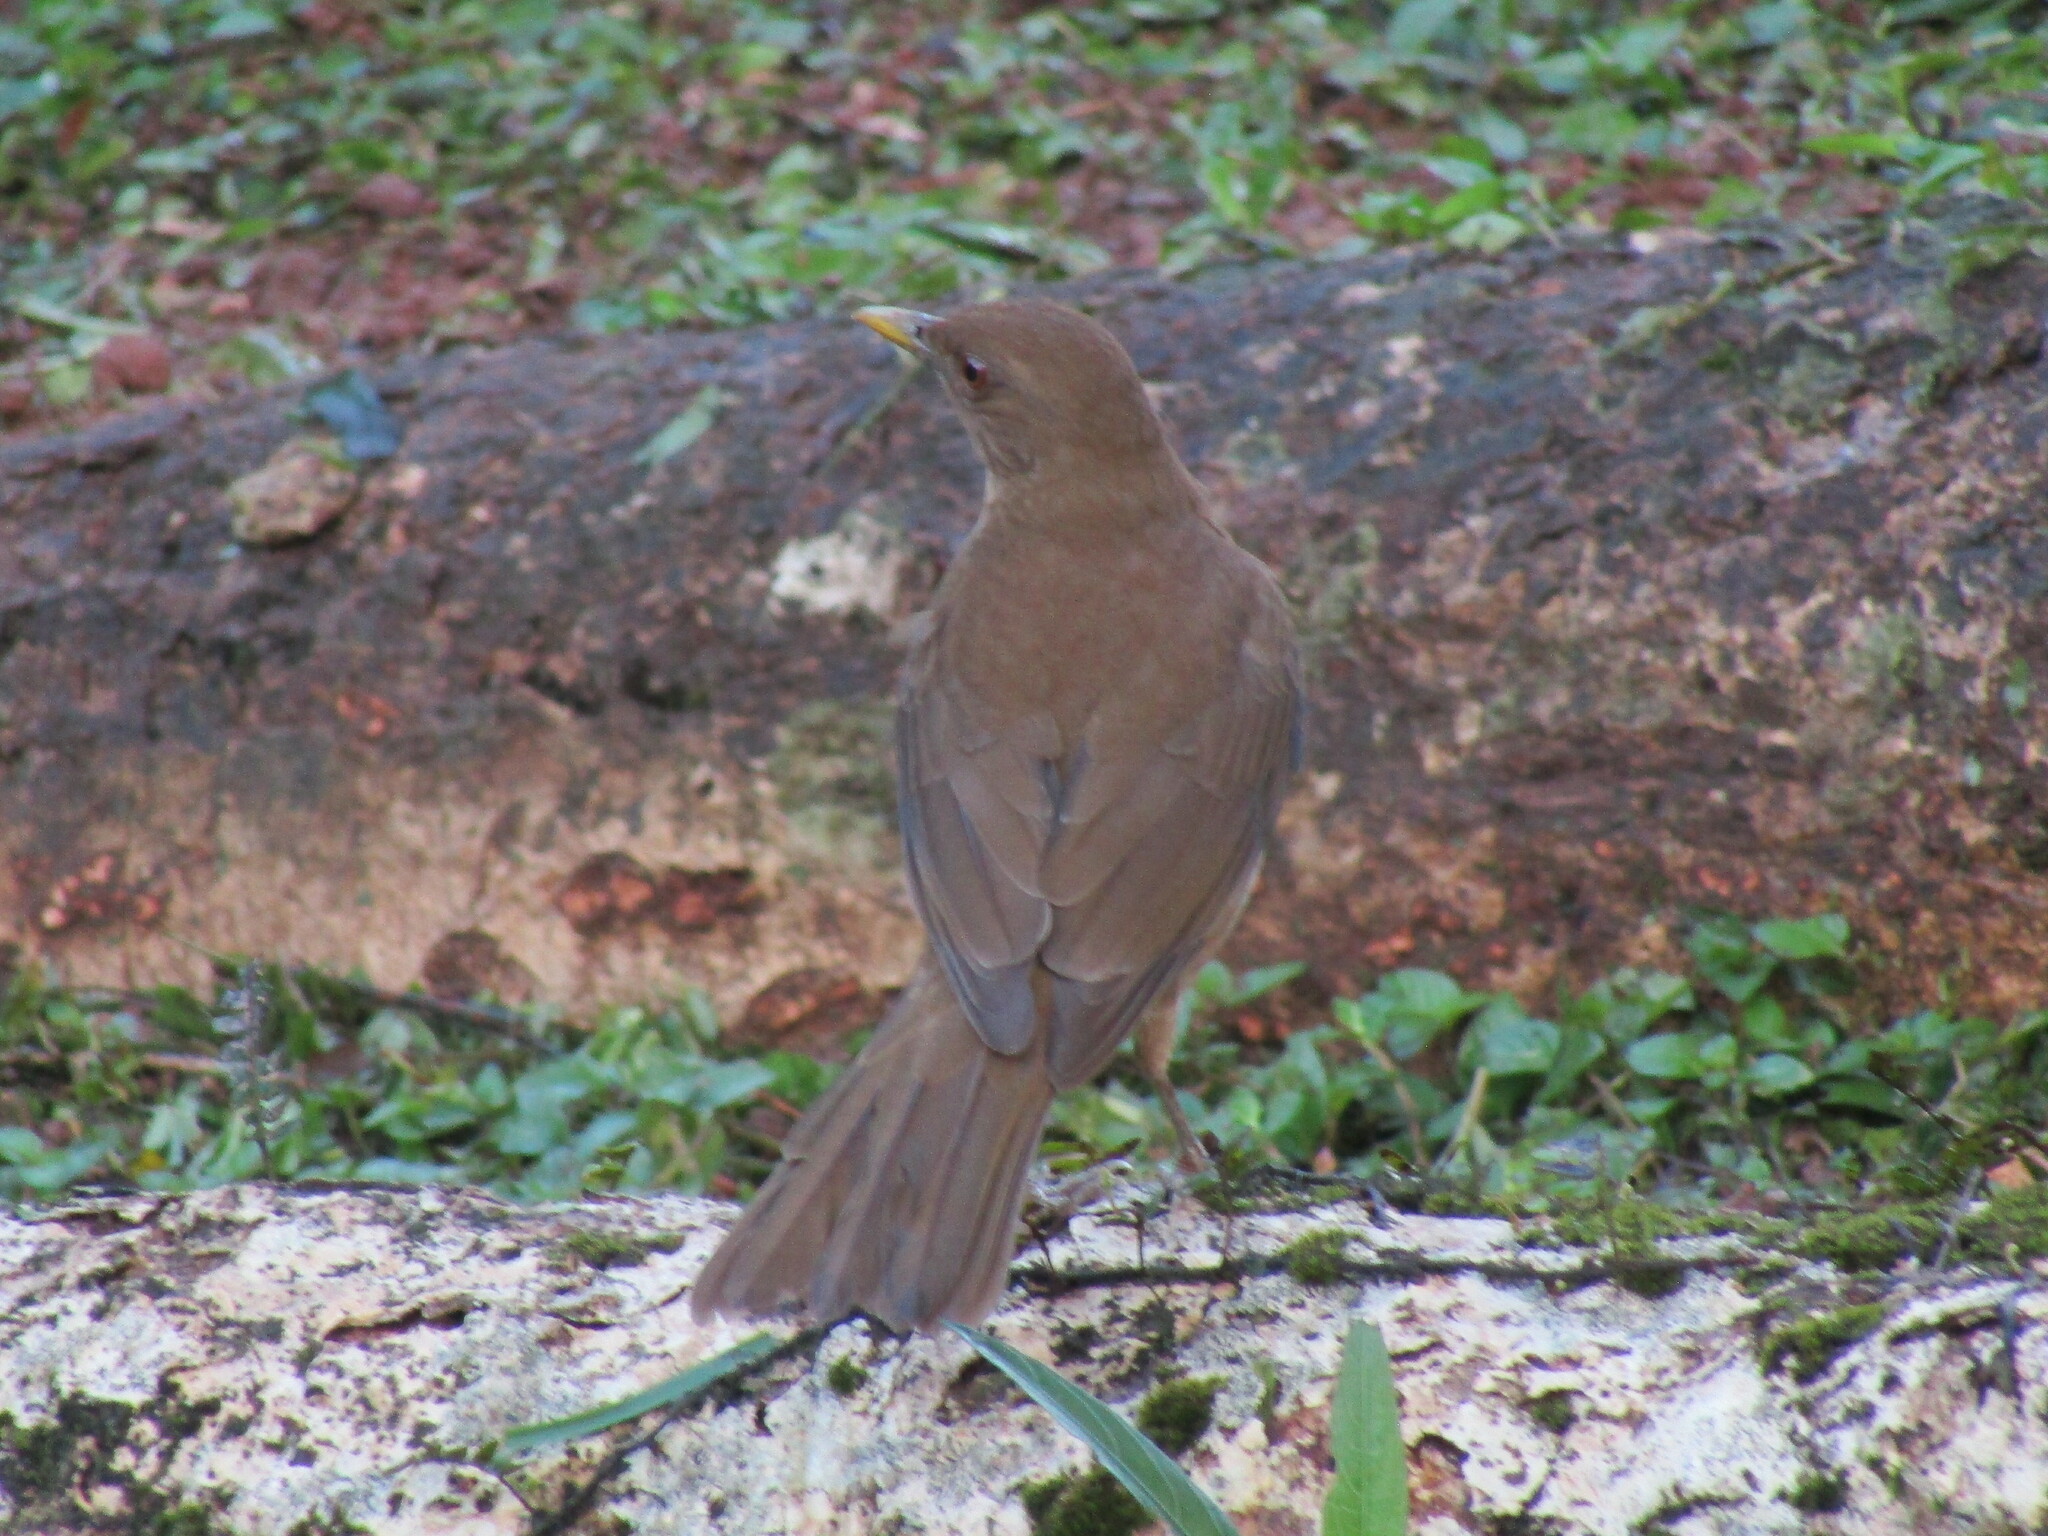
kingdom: Animalia
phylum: Chordata
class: Aves
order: Passeriformes
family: Turdidae
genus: Turdus
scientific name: Turdus grayi
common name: Clay-colored thrush
